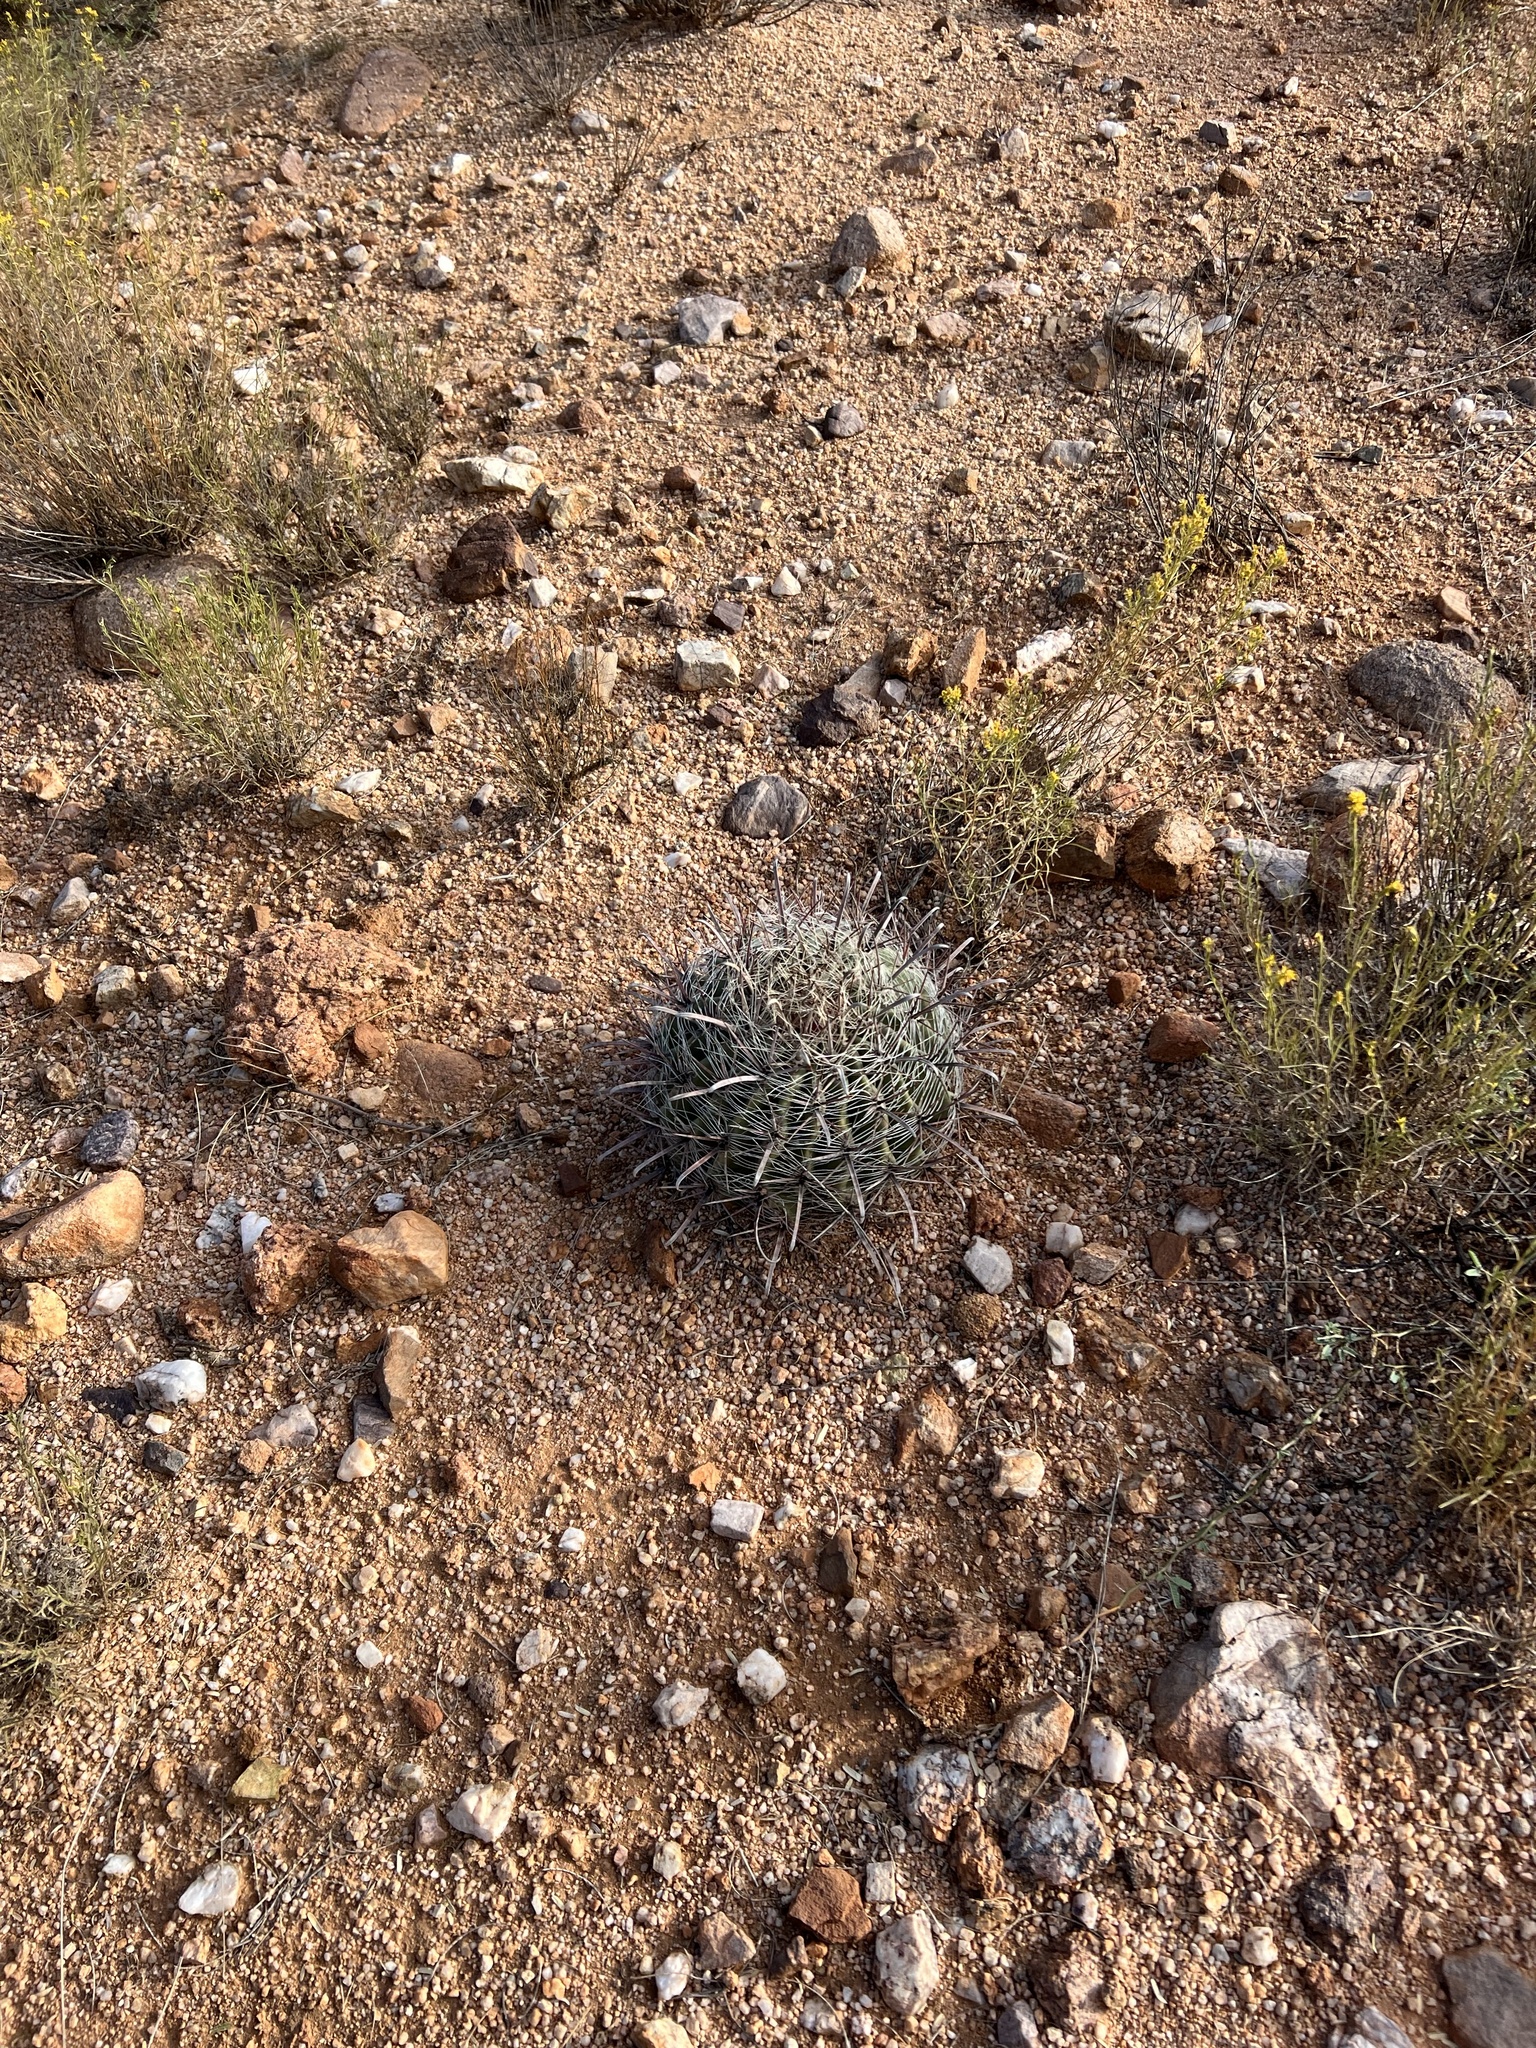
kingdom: Plantae
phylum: Tracheophyta
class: Magnoliopsida
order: Caryophyllales
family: Cactaceae
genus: Ferocactus
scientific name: Ferocactus wislizeni
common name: Candy barrel cactus
